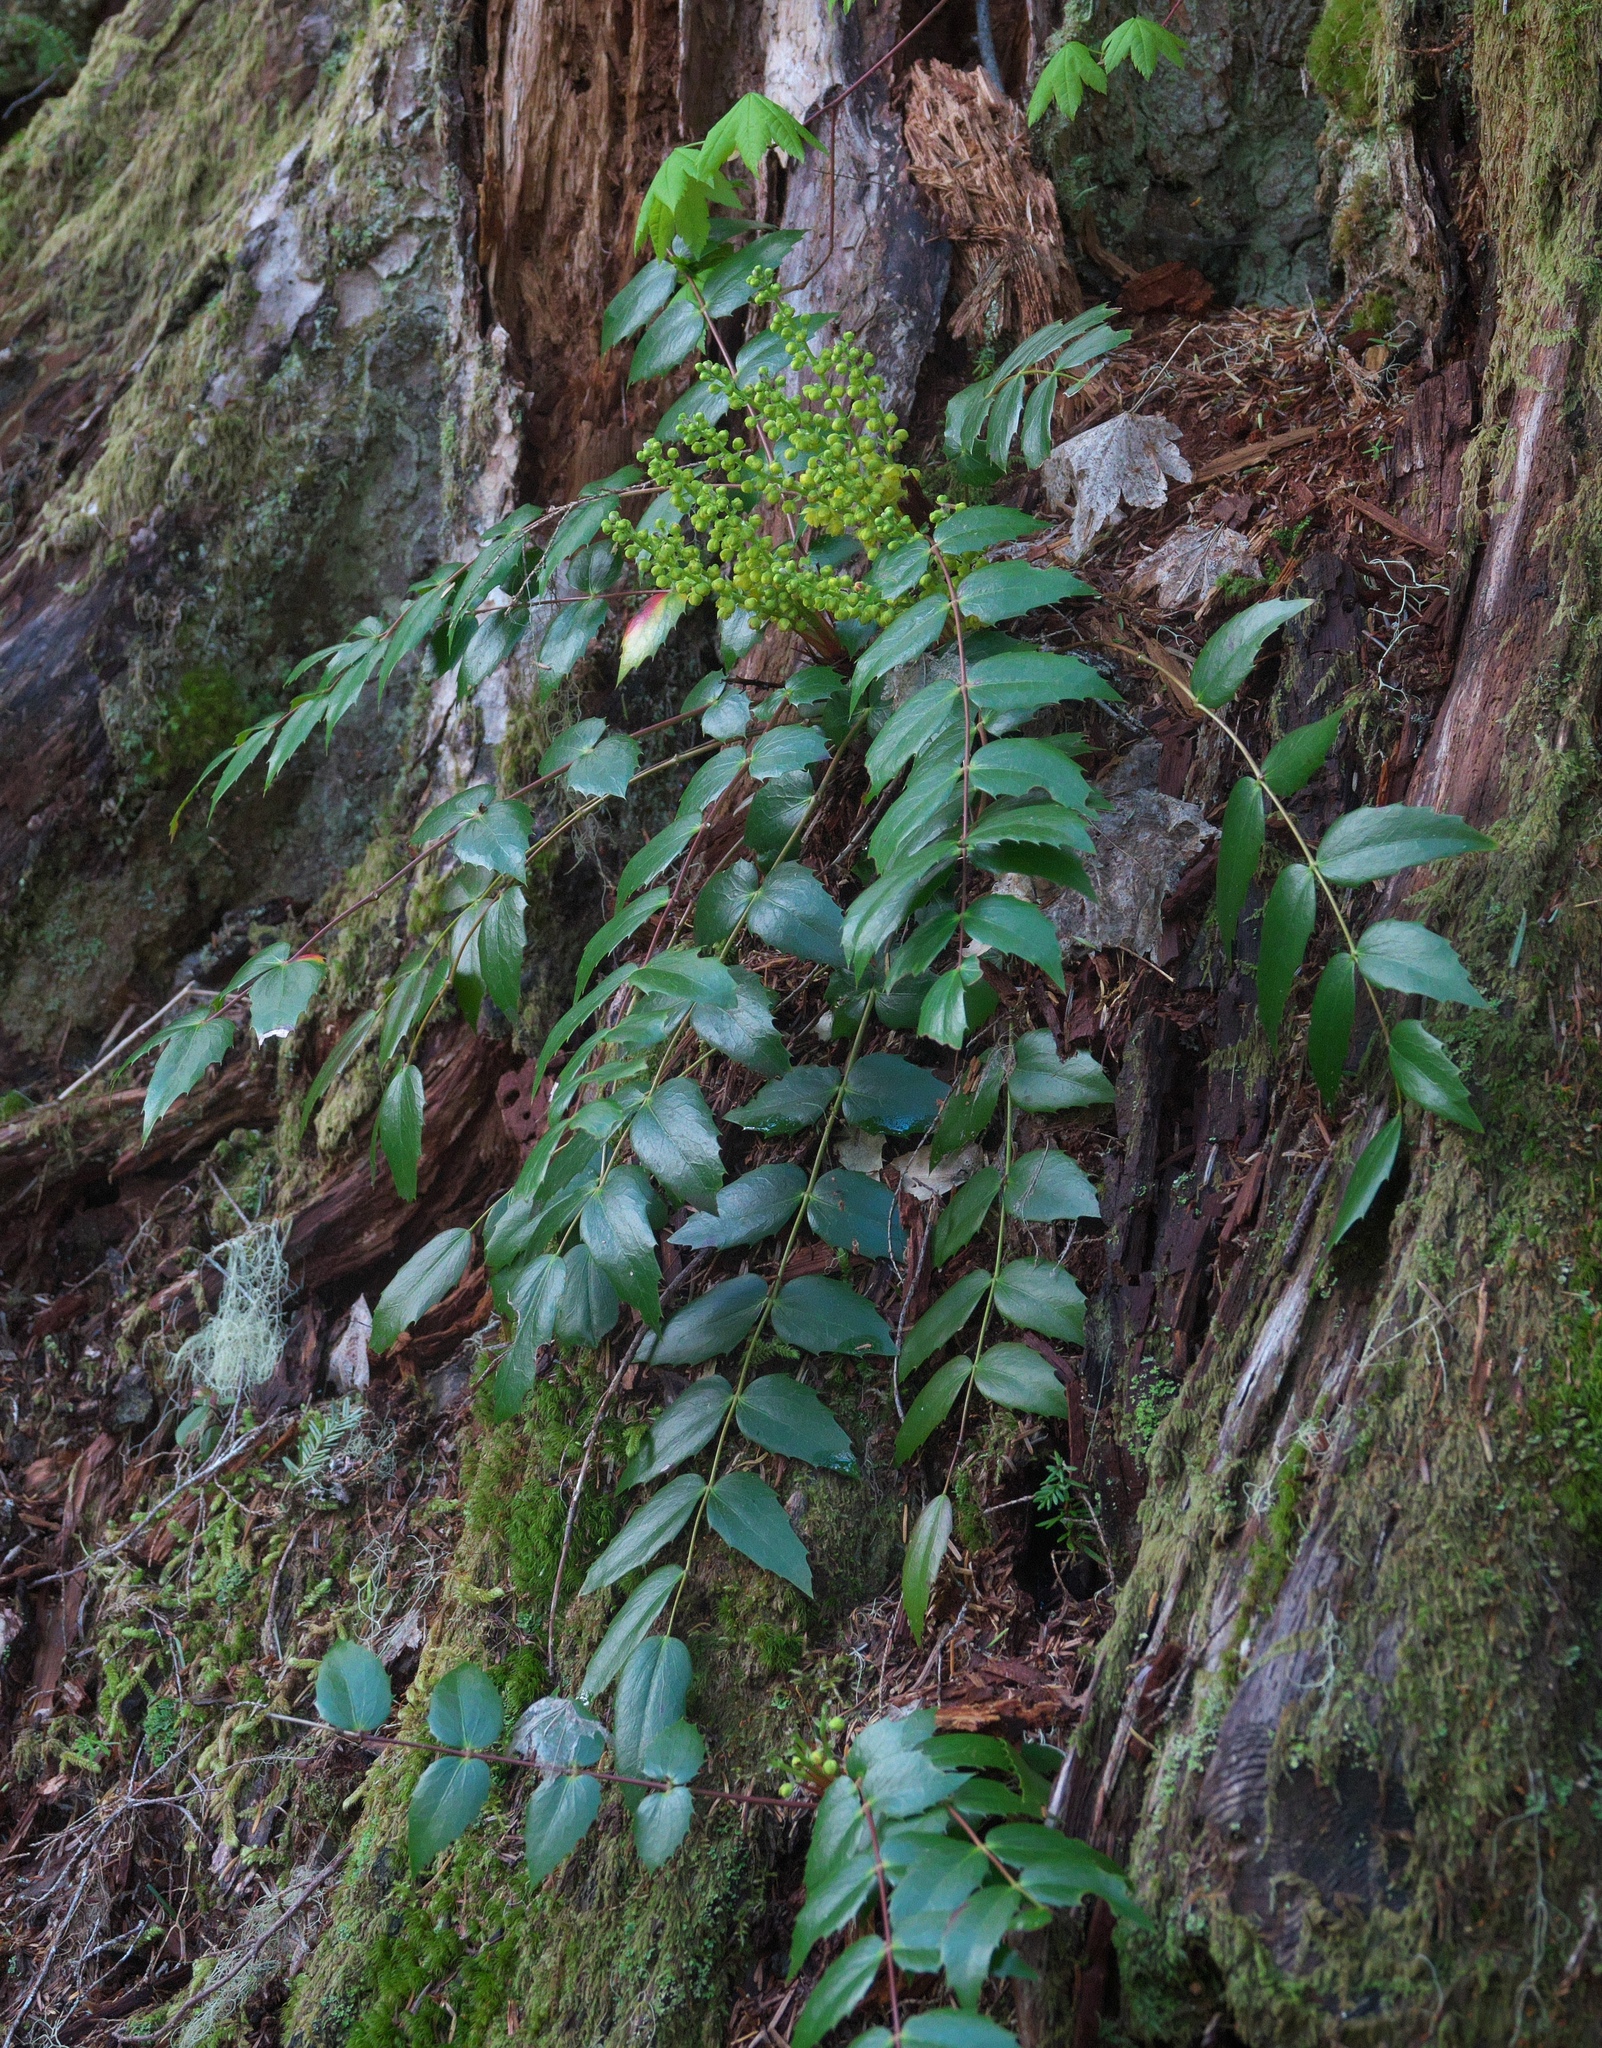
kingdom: Plantae
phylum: Tracheophyta
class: Magnoliopsida
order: Ranunculales
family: Berberidaceae
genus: Mahonia
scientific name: Mahonia nervosa
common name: Cascade oregon-grape
